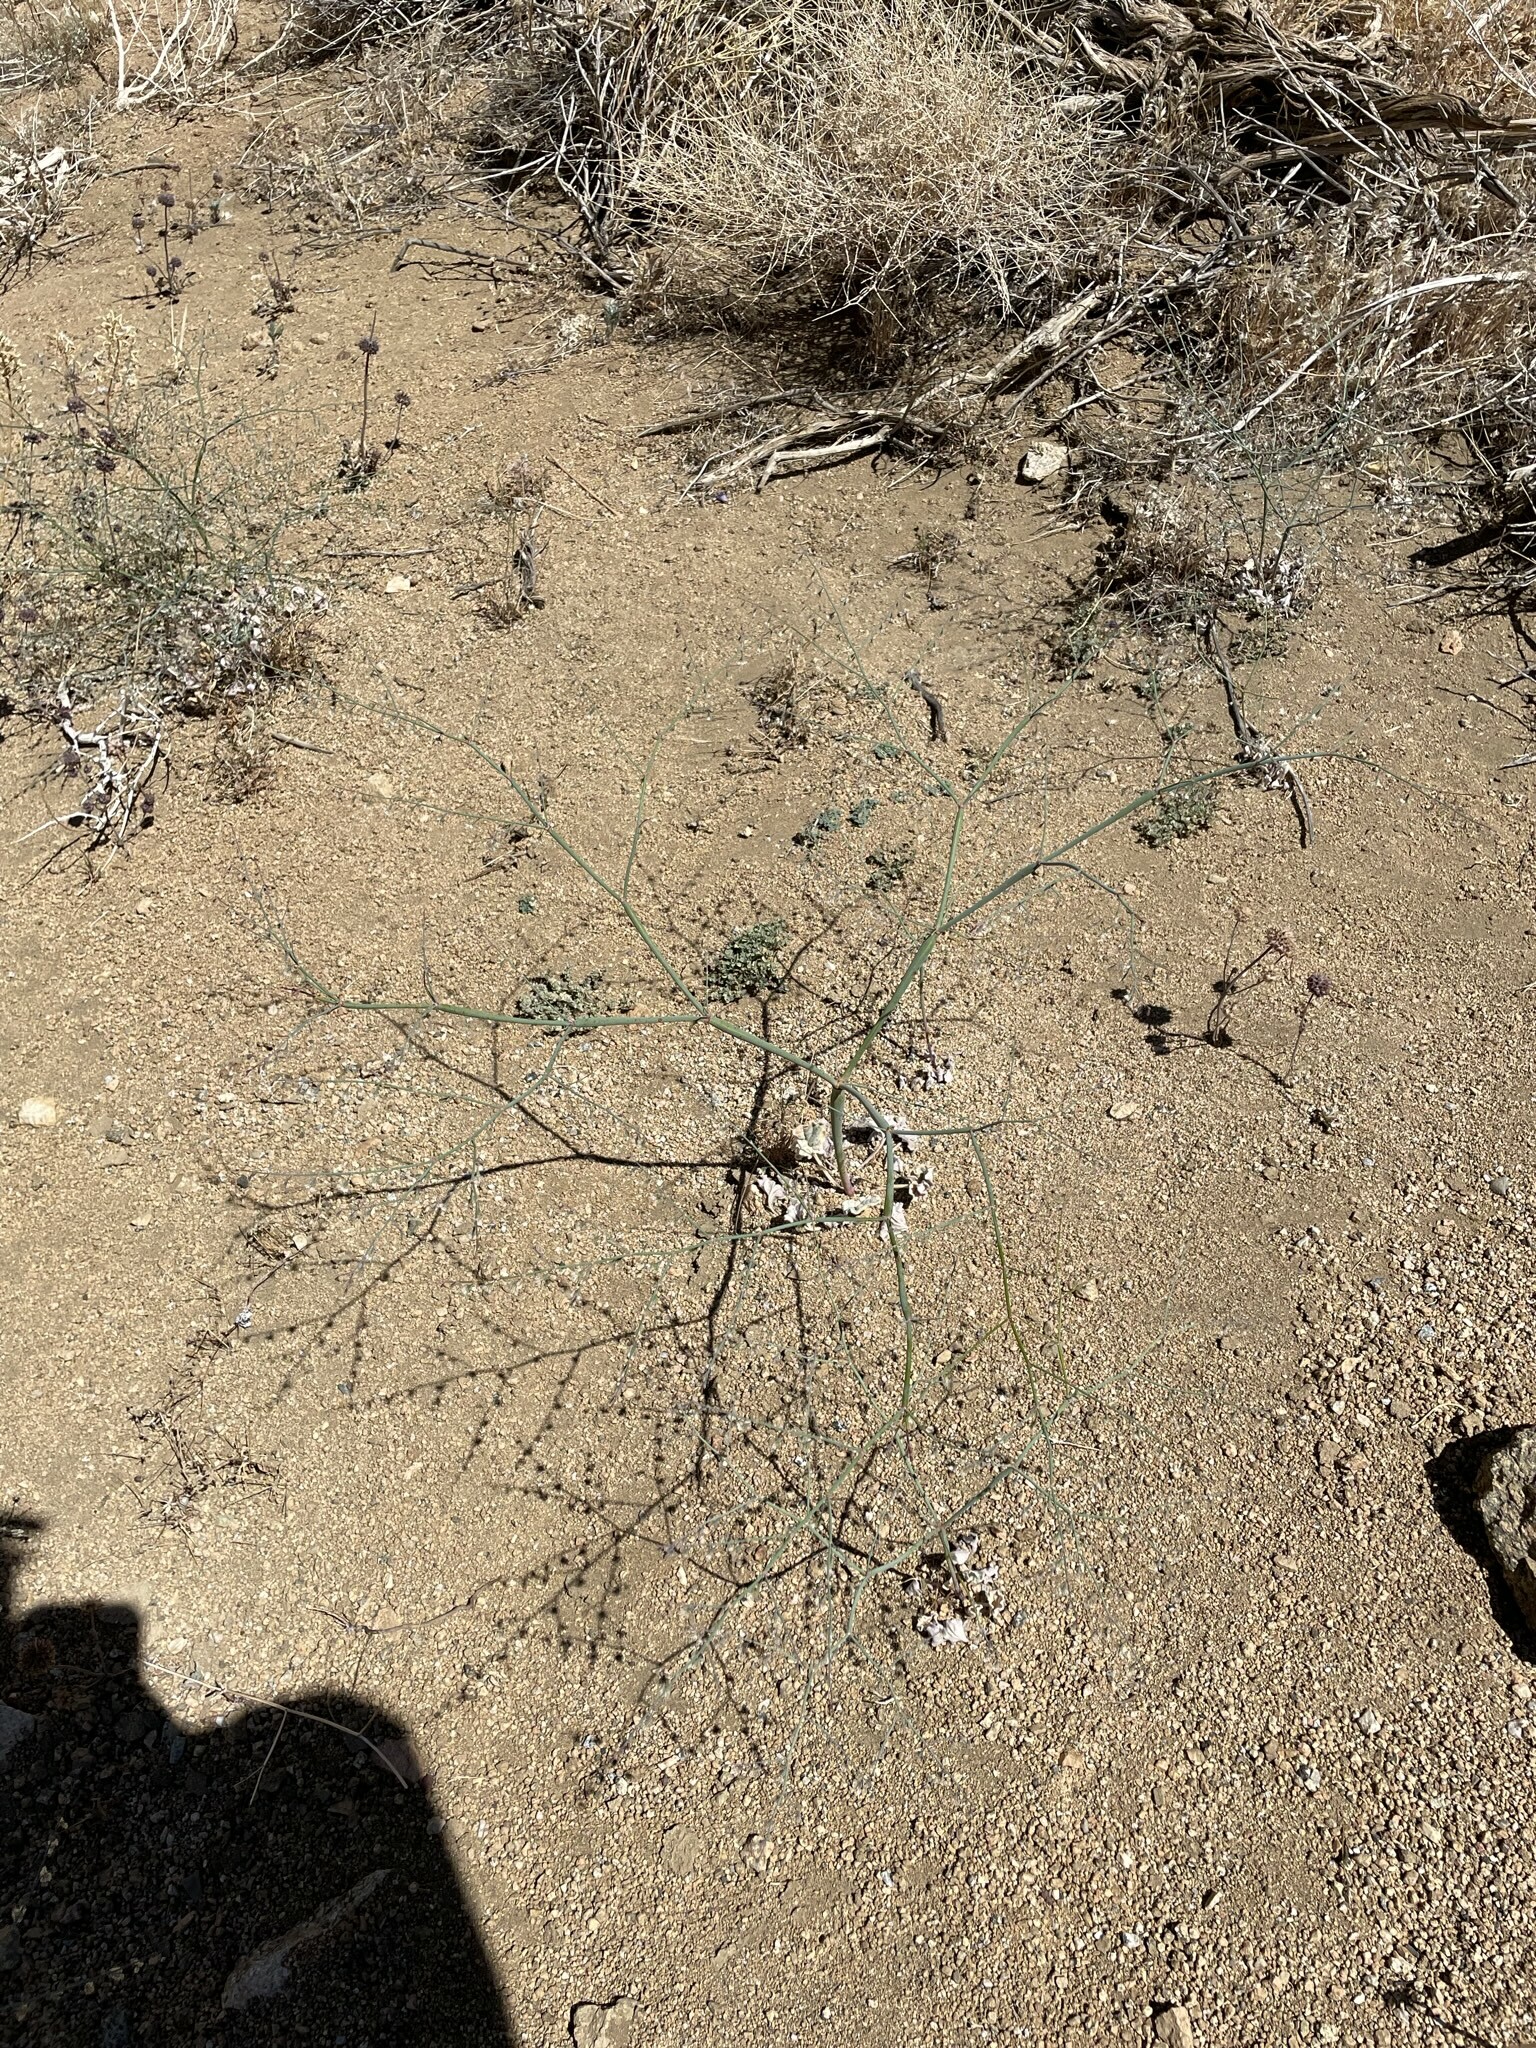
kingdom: Plantae
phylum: Tracheophyta
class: Magnoliopsida
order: Caryophyllales
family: Polygonaceae
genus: Eriogonum
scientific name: Eriogonum deflexum
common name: Skeleton-weed
